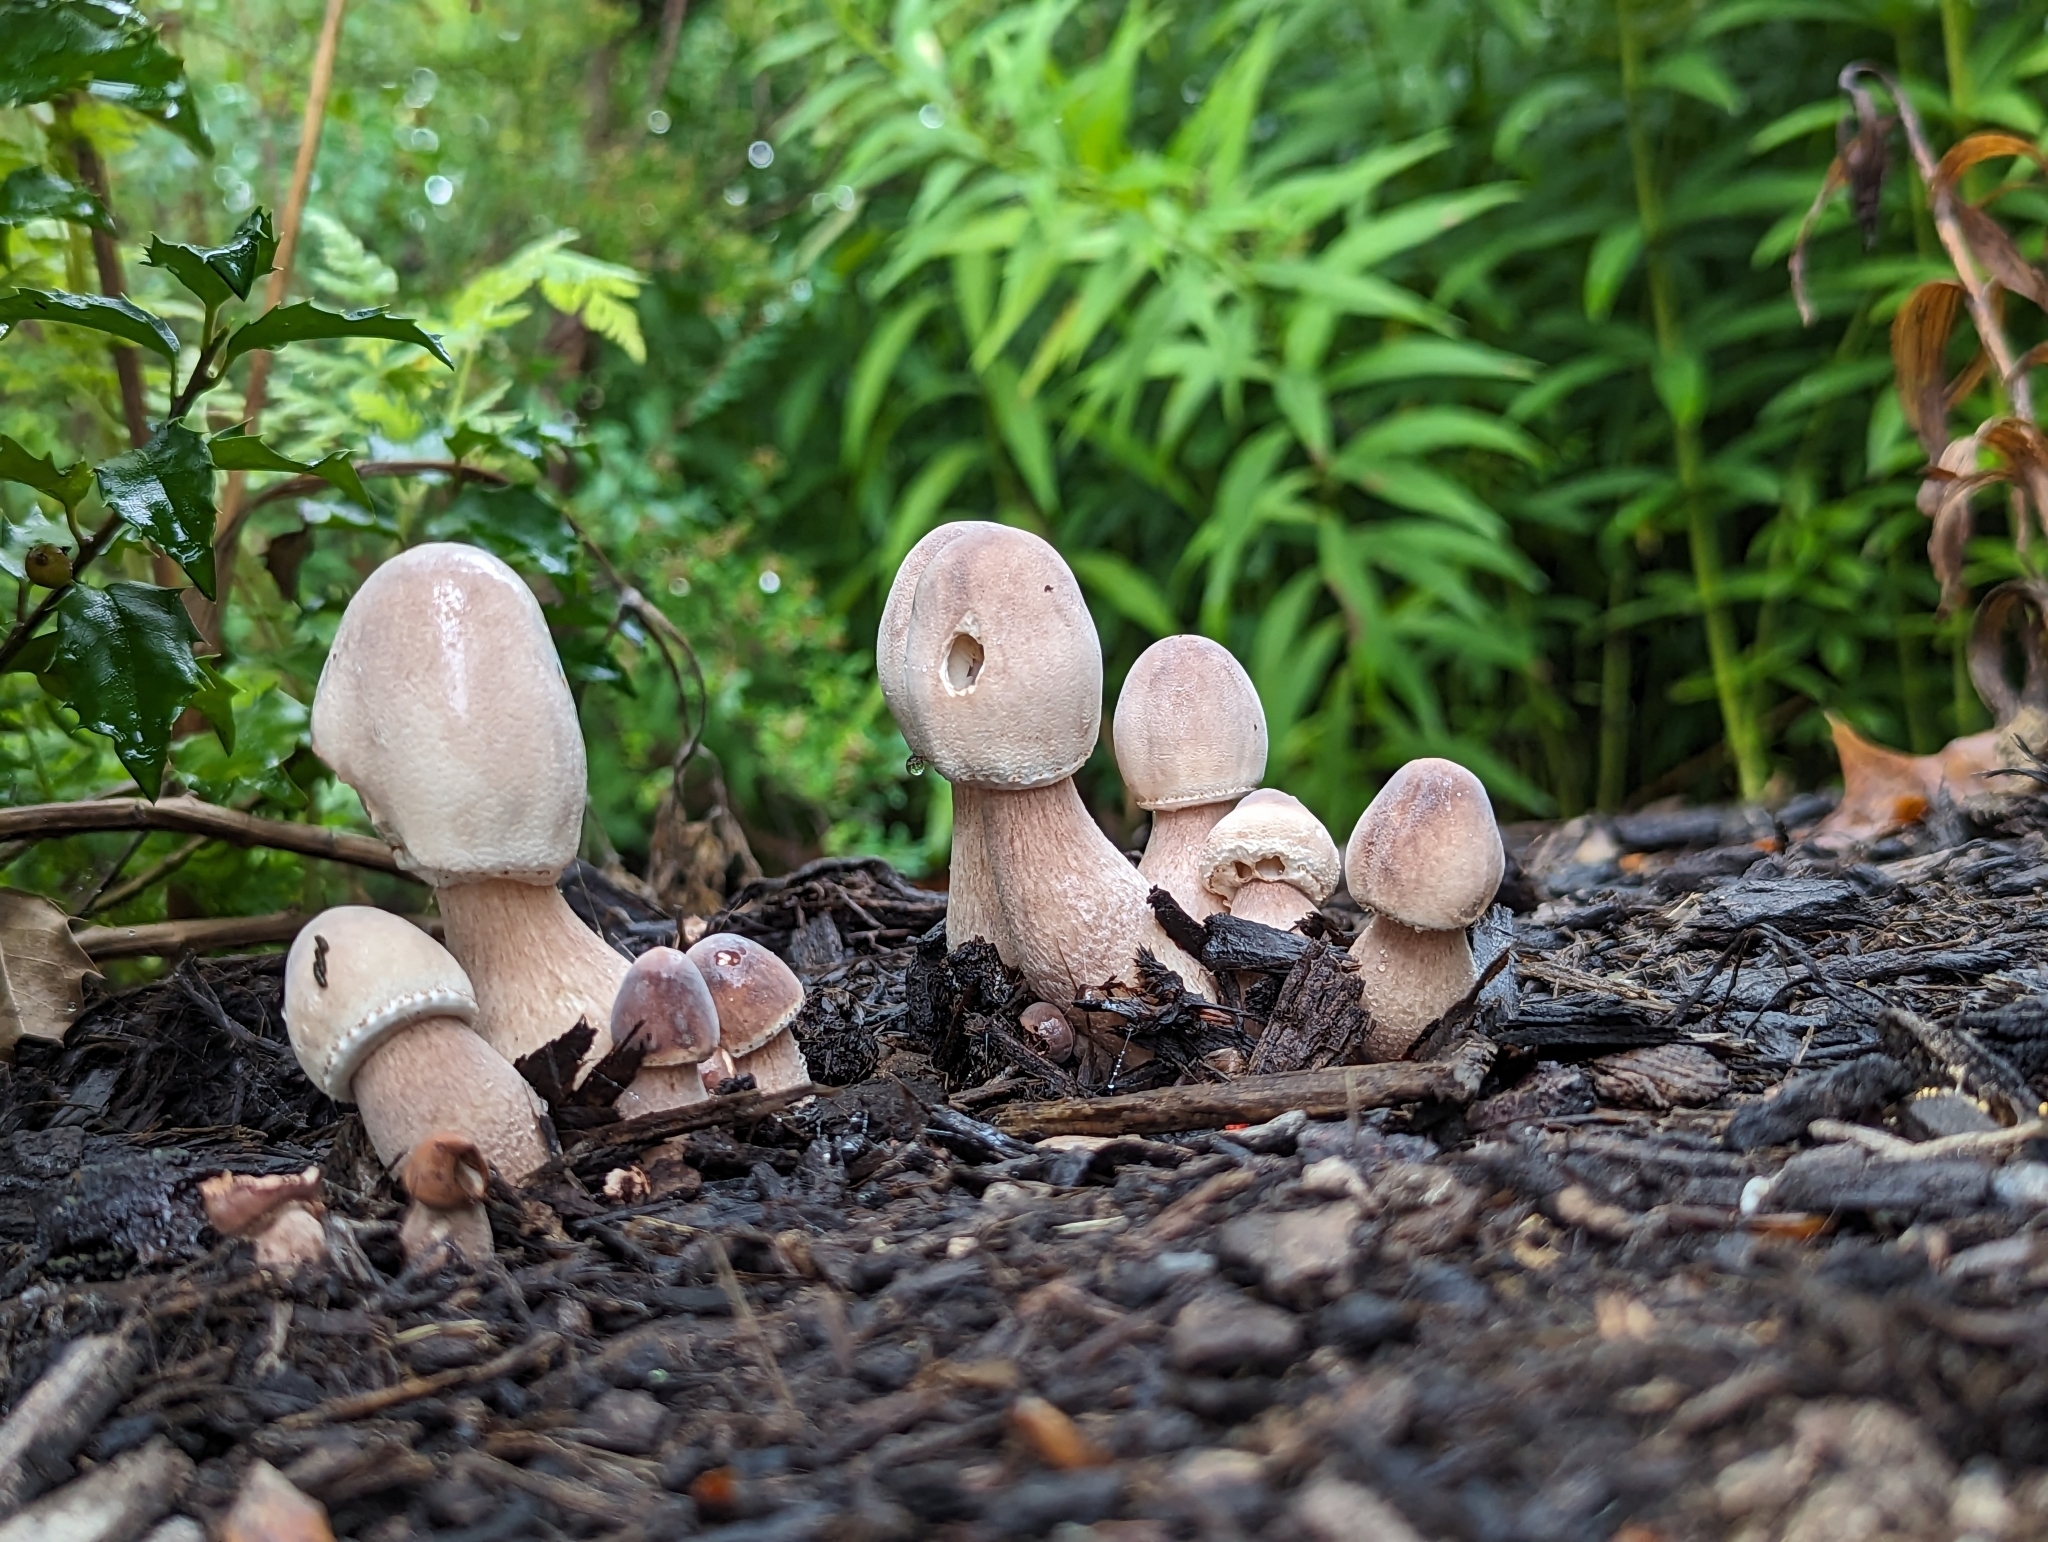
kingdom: Fungi
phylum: Basidiomycota
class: Agaricomycetes
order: Agaricales
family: Agaricaceae
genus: Leucoagaricus
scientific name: Leucoagaricus americanus
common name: Reddening lepiota
